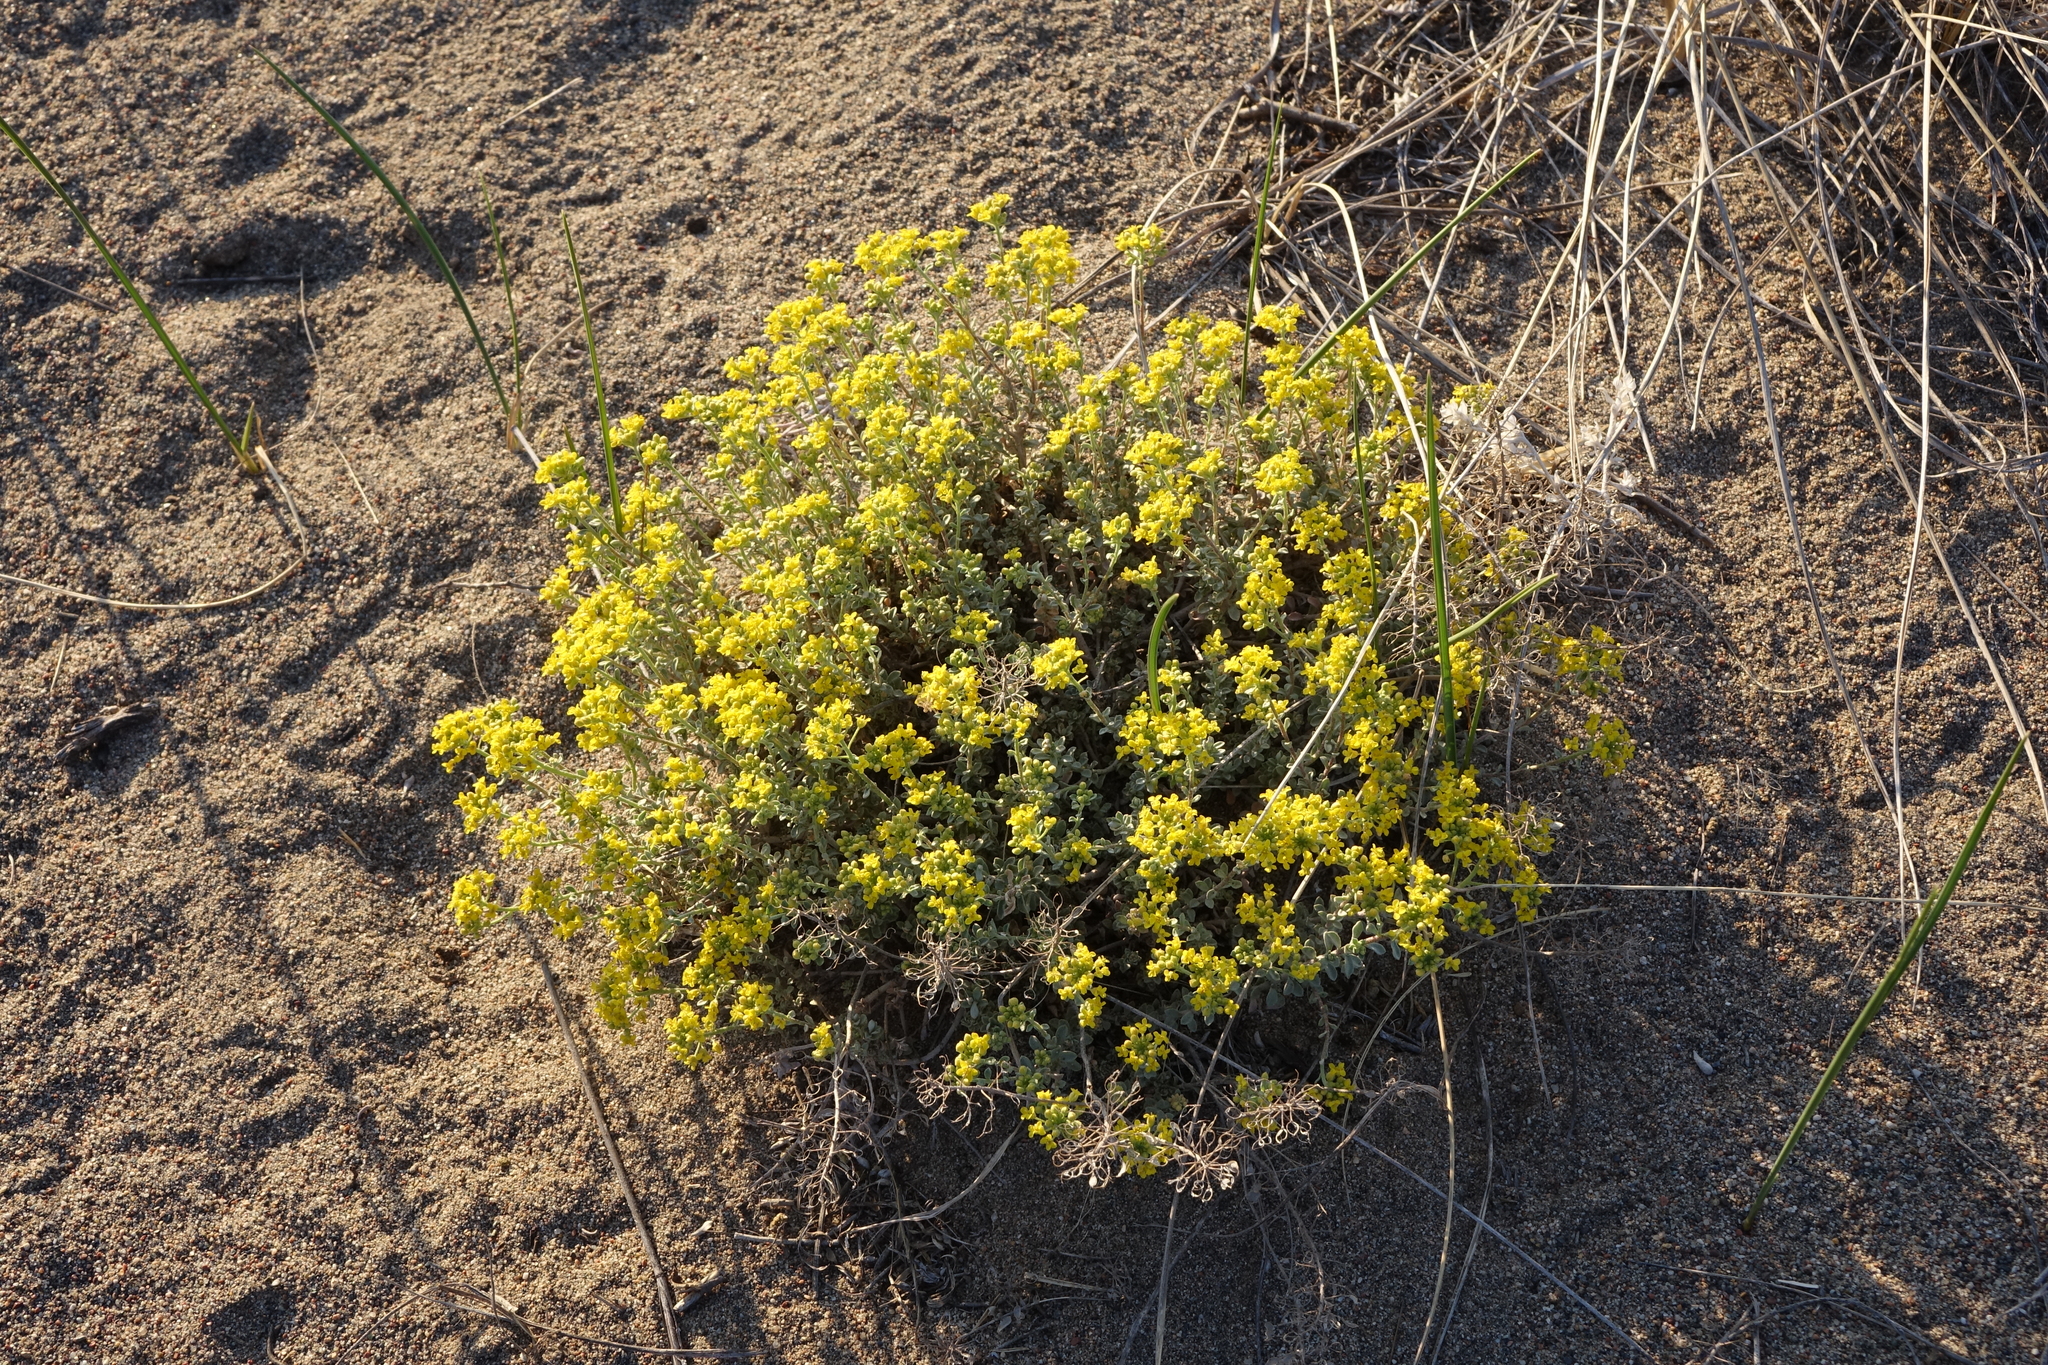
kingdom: Plantae
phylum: Tracheophyta
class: Magnoliopsida
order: Brassicales
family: Brassicaceae
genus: Odontarrhena
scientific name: Odontarrhena obovata
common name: American alyssum
